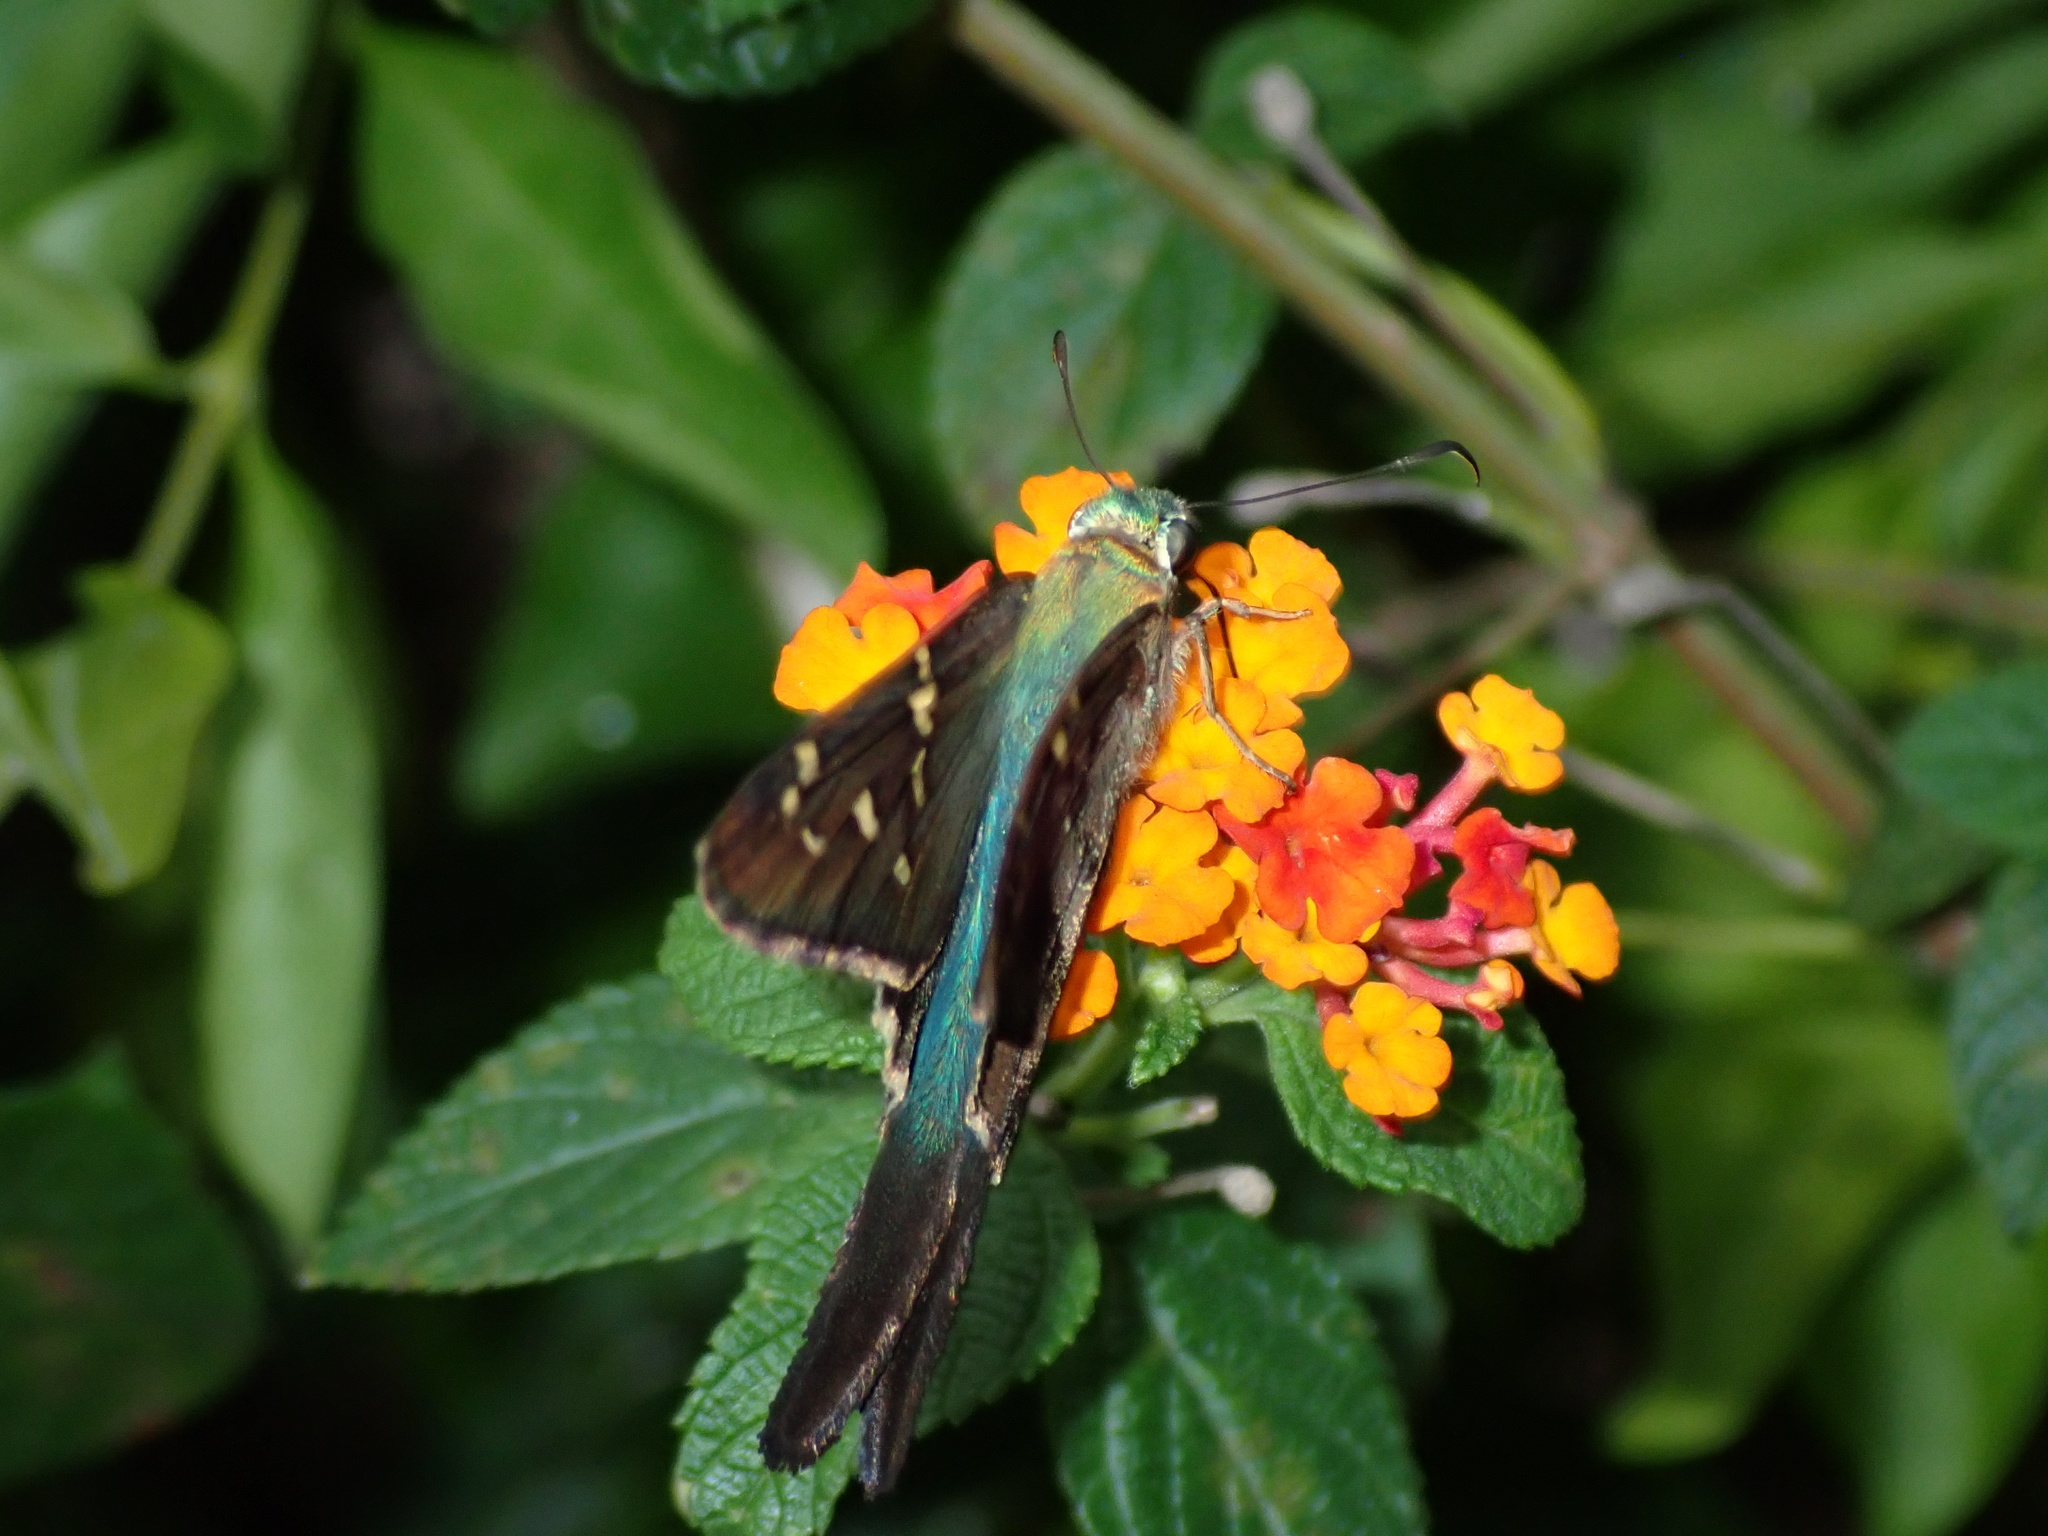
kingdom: Animalia
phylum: Arthropoda
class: Insecta
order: Lepidoptera
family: Hesperiidae
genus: Urbanus
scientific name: Urbanus proteus
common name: Long-tailed skipper
